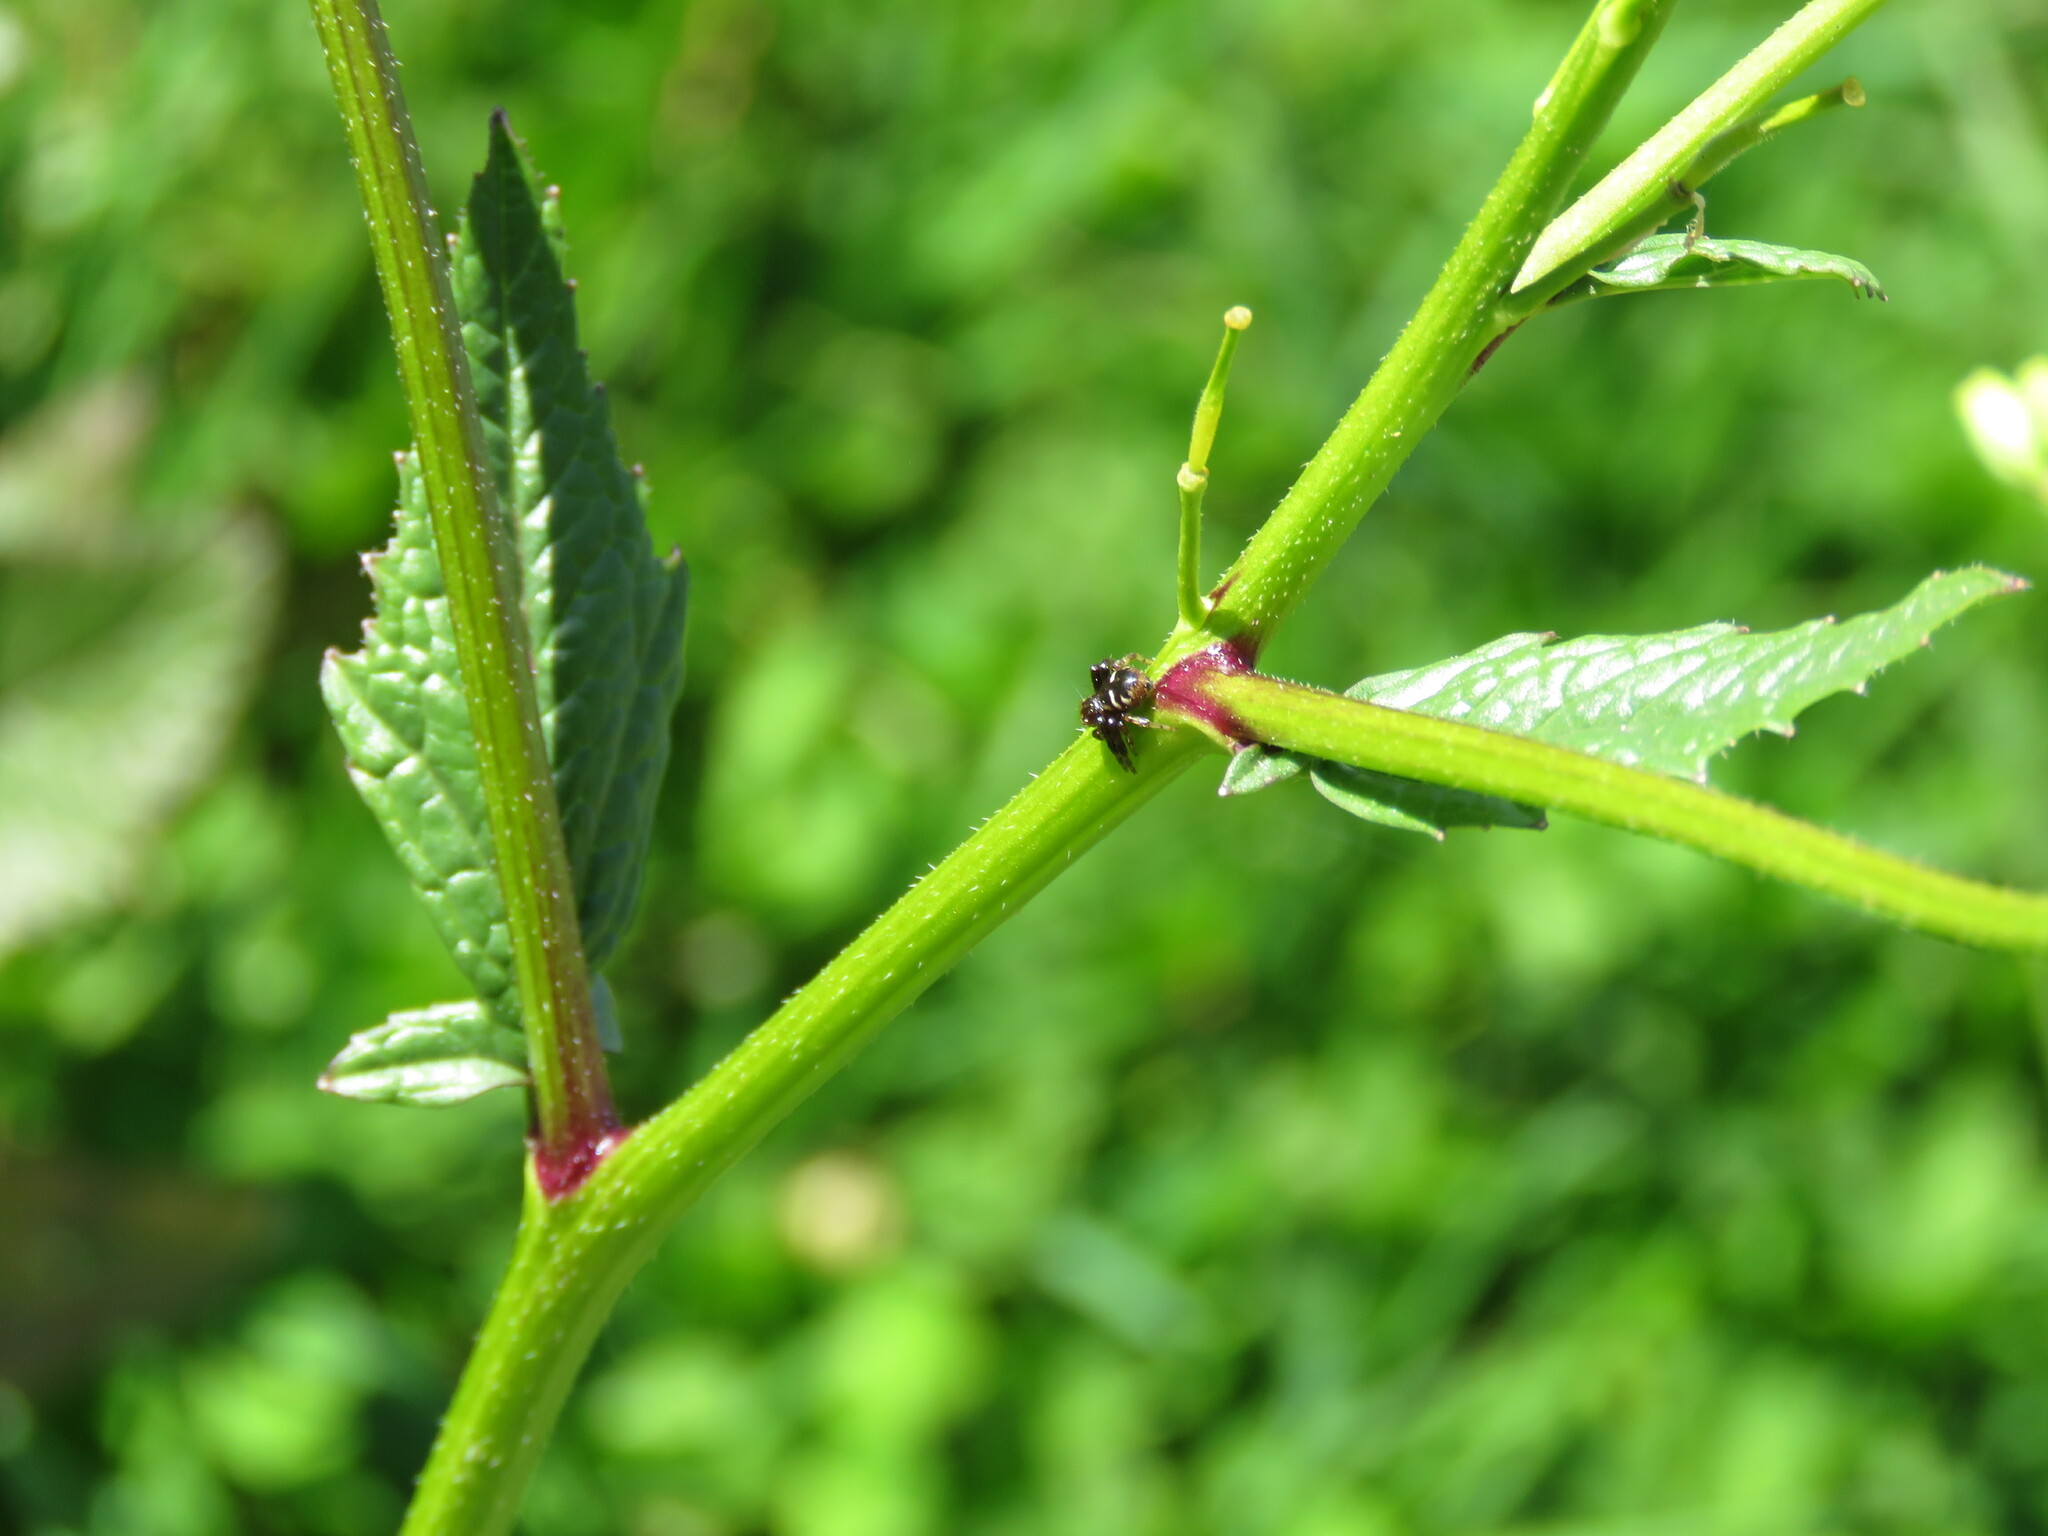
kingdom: Animalia
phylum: Arthropoda
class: Arachnida
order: Araneae
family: Thomisidae
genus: Synema
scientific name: Synema globosum
